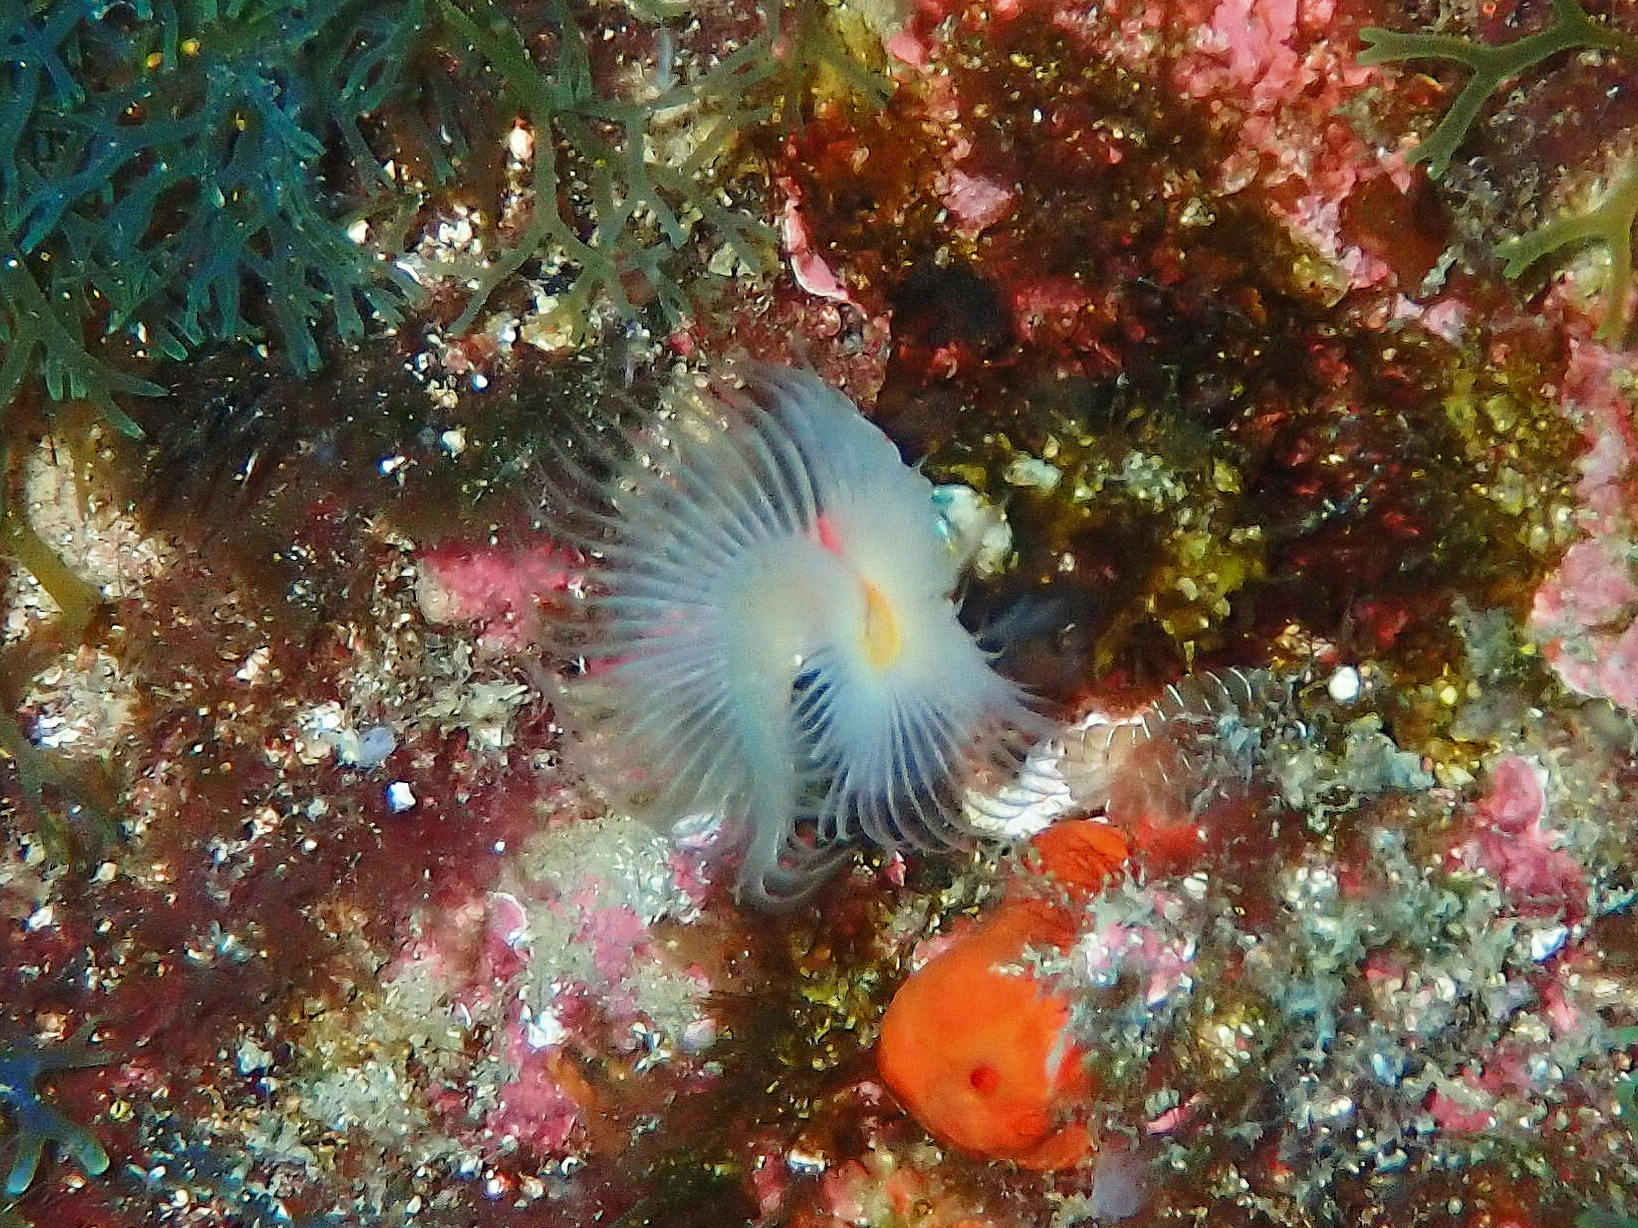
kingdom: Animalia
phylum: Annelida
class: Polychaeta
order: Sabellida
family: Serpulidae
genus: Protula
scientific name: Protula tubularia
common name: Red-spotted horseshoe
